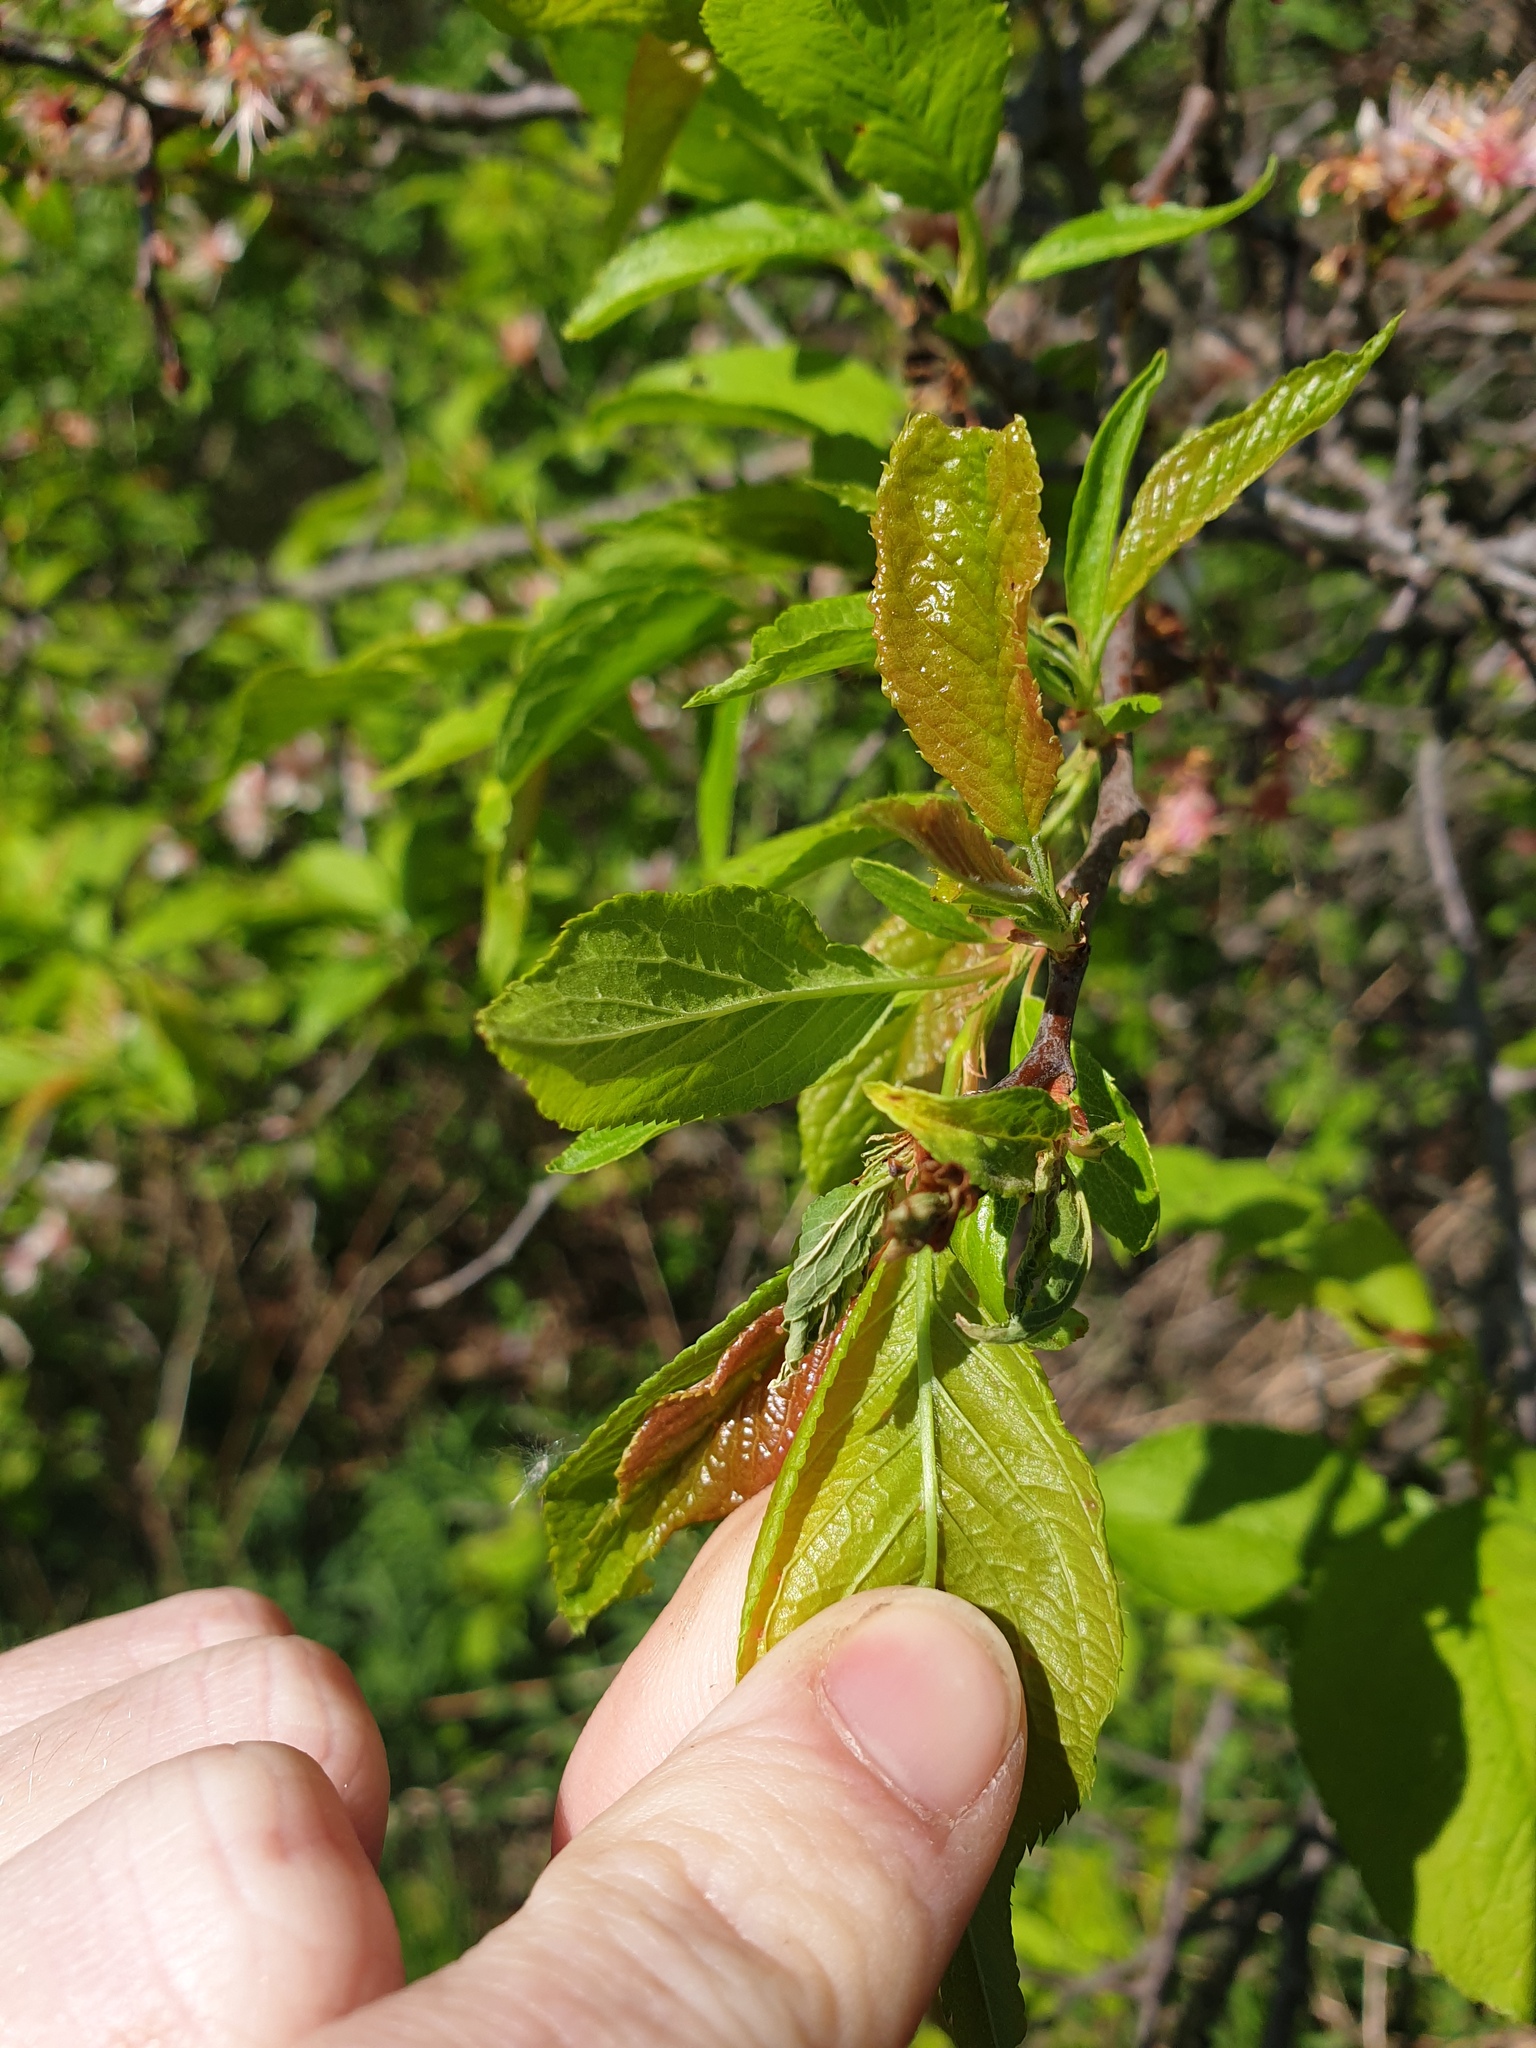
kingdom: Plantae
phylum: Tracheophyta
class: Magnoliopsida
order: Rosales
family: Rosaceae
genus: Prunus
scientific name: Prunus americana
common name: American plum
